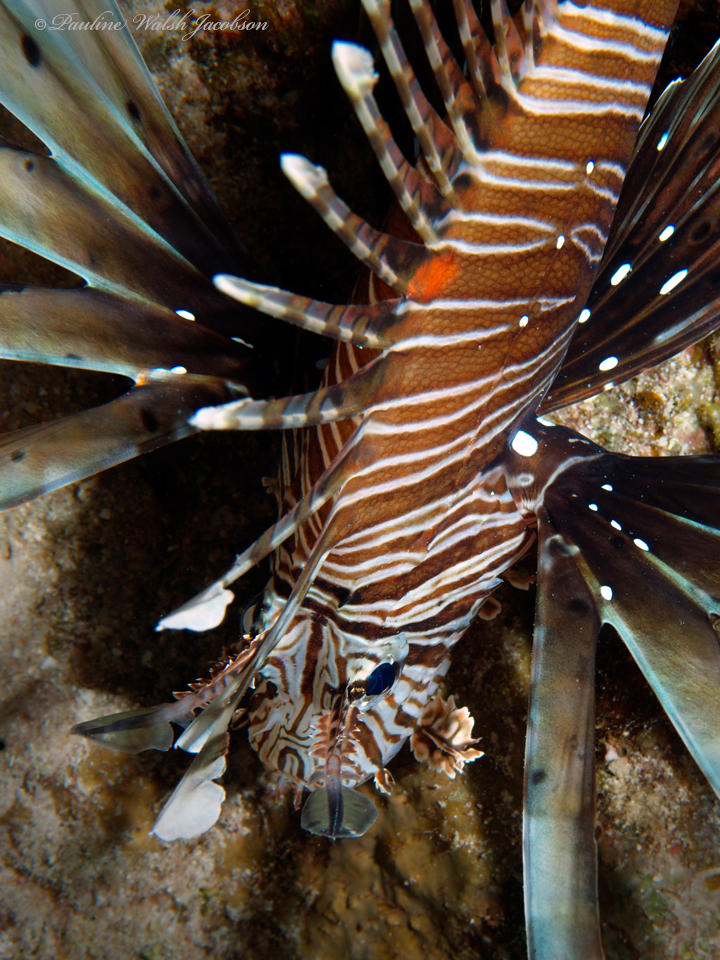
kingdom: Animalia
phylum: Chordata
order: Scorpaeniformes
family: Scorpaenidae
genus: Pterois
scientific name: Pterois miles
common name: Devil firefish
